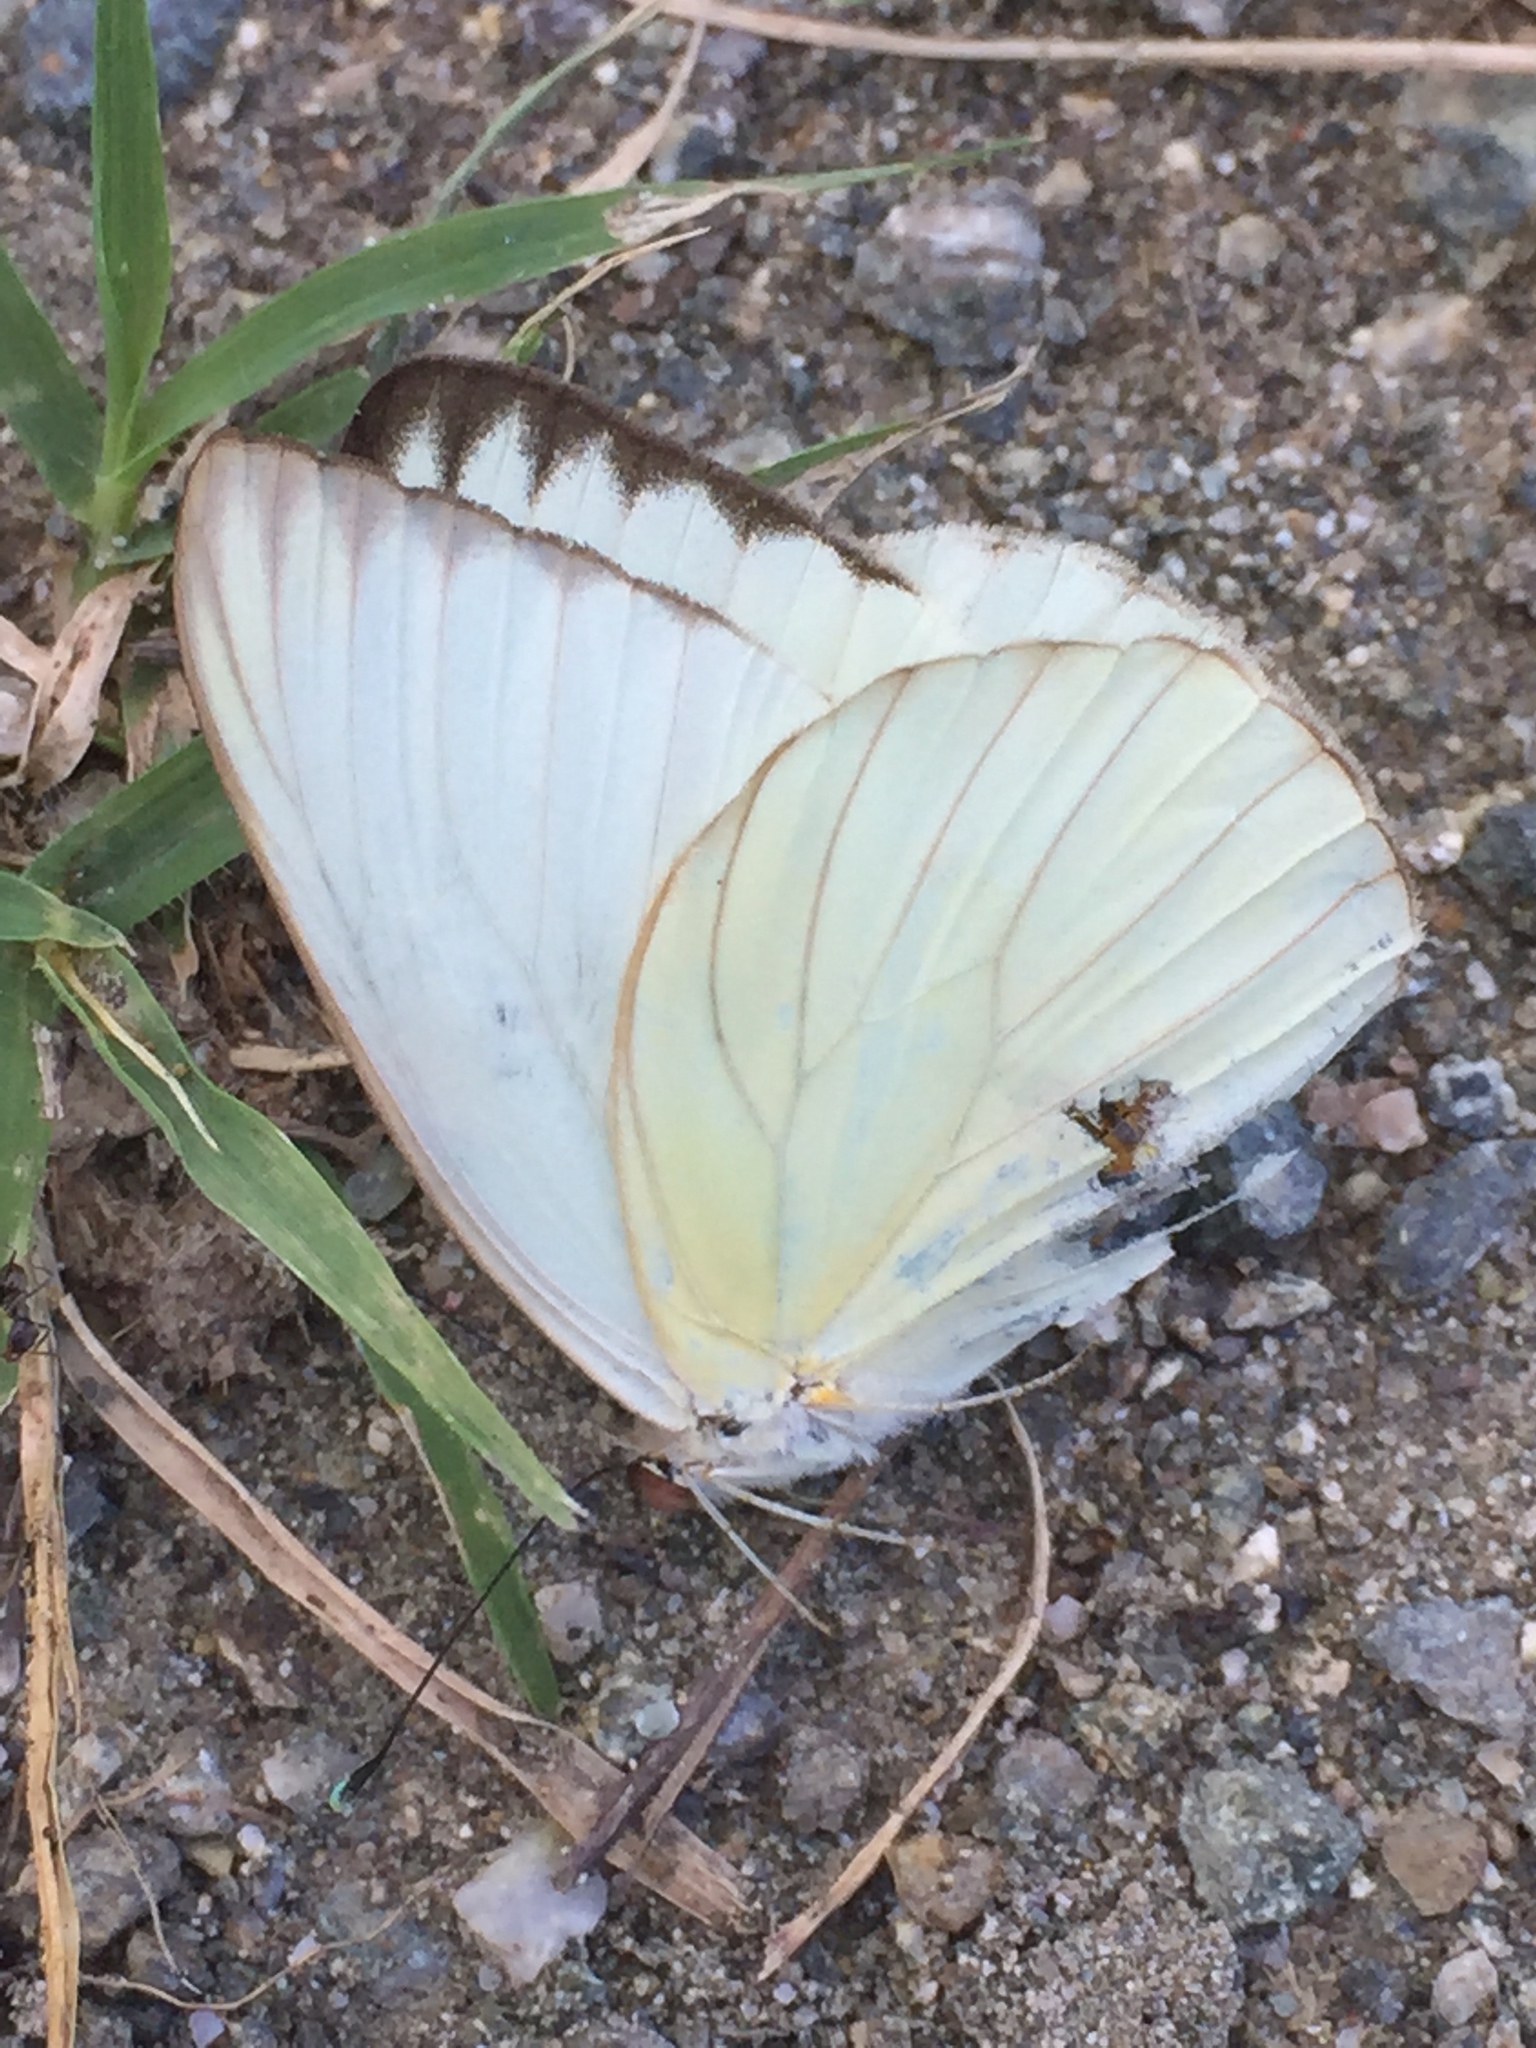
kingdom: Animalia
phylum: Arthropoda
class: Insecta
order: Lepidoptera
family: Pieridae
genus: Ascia
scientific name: Ascia monuste
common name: Great southern white
